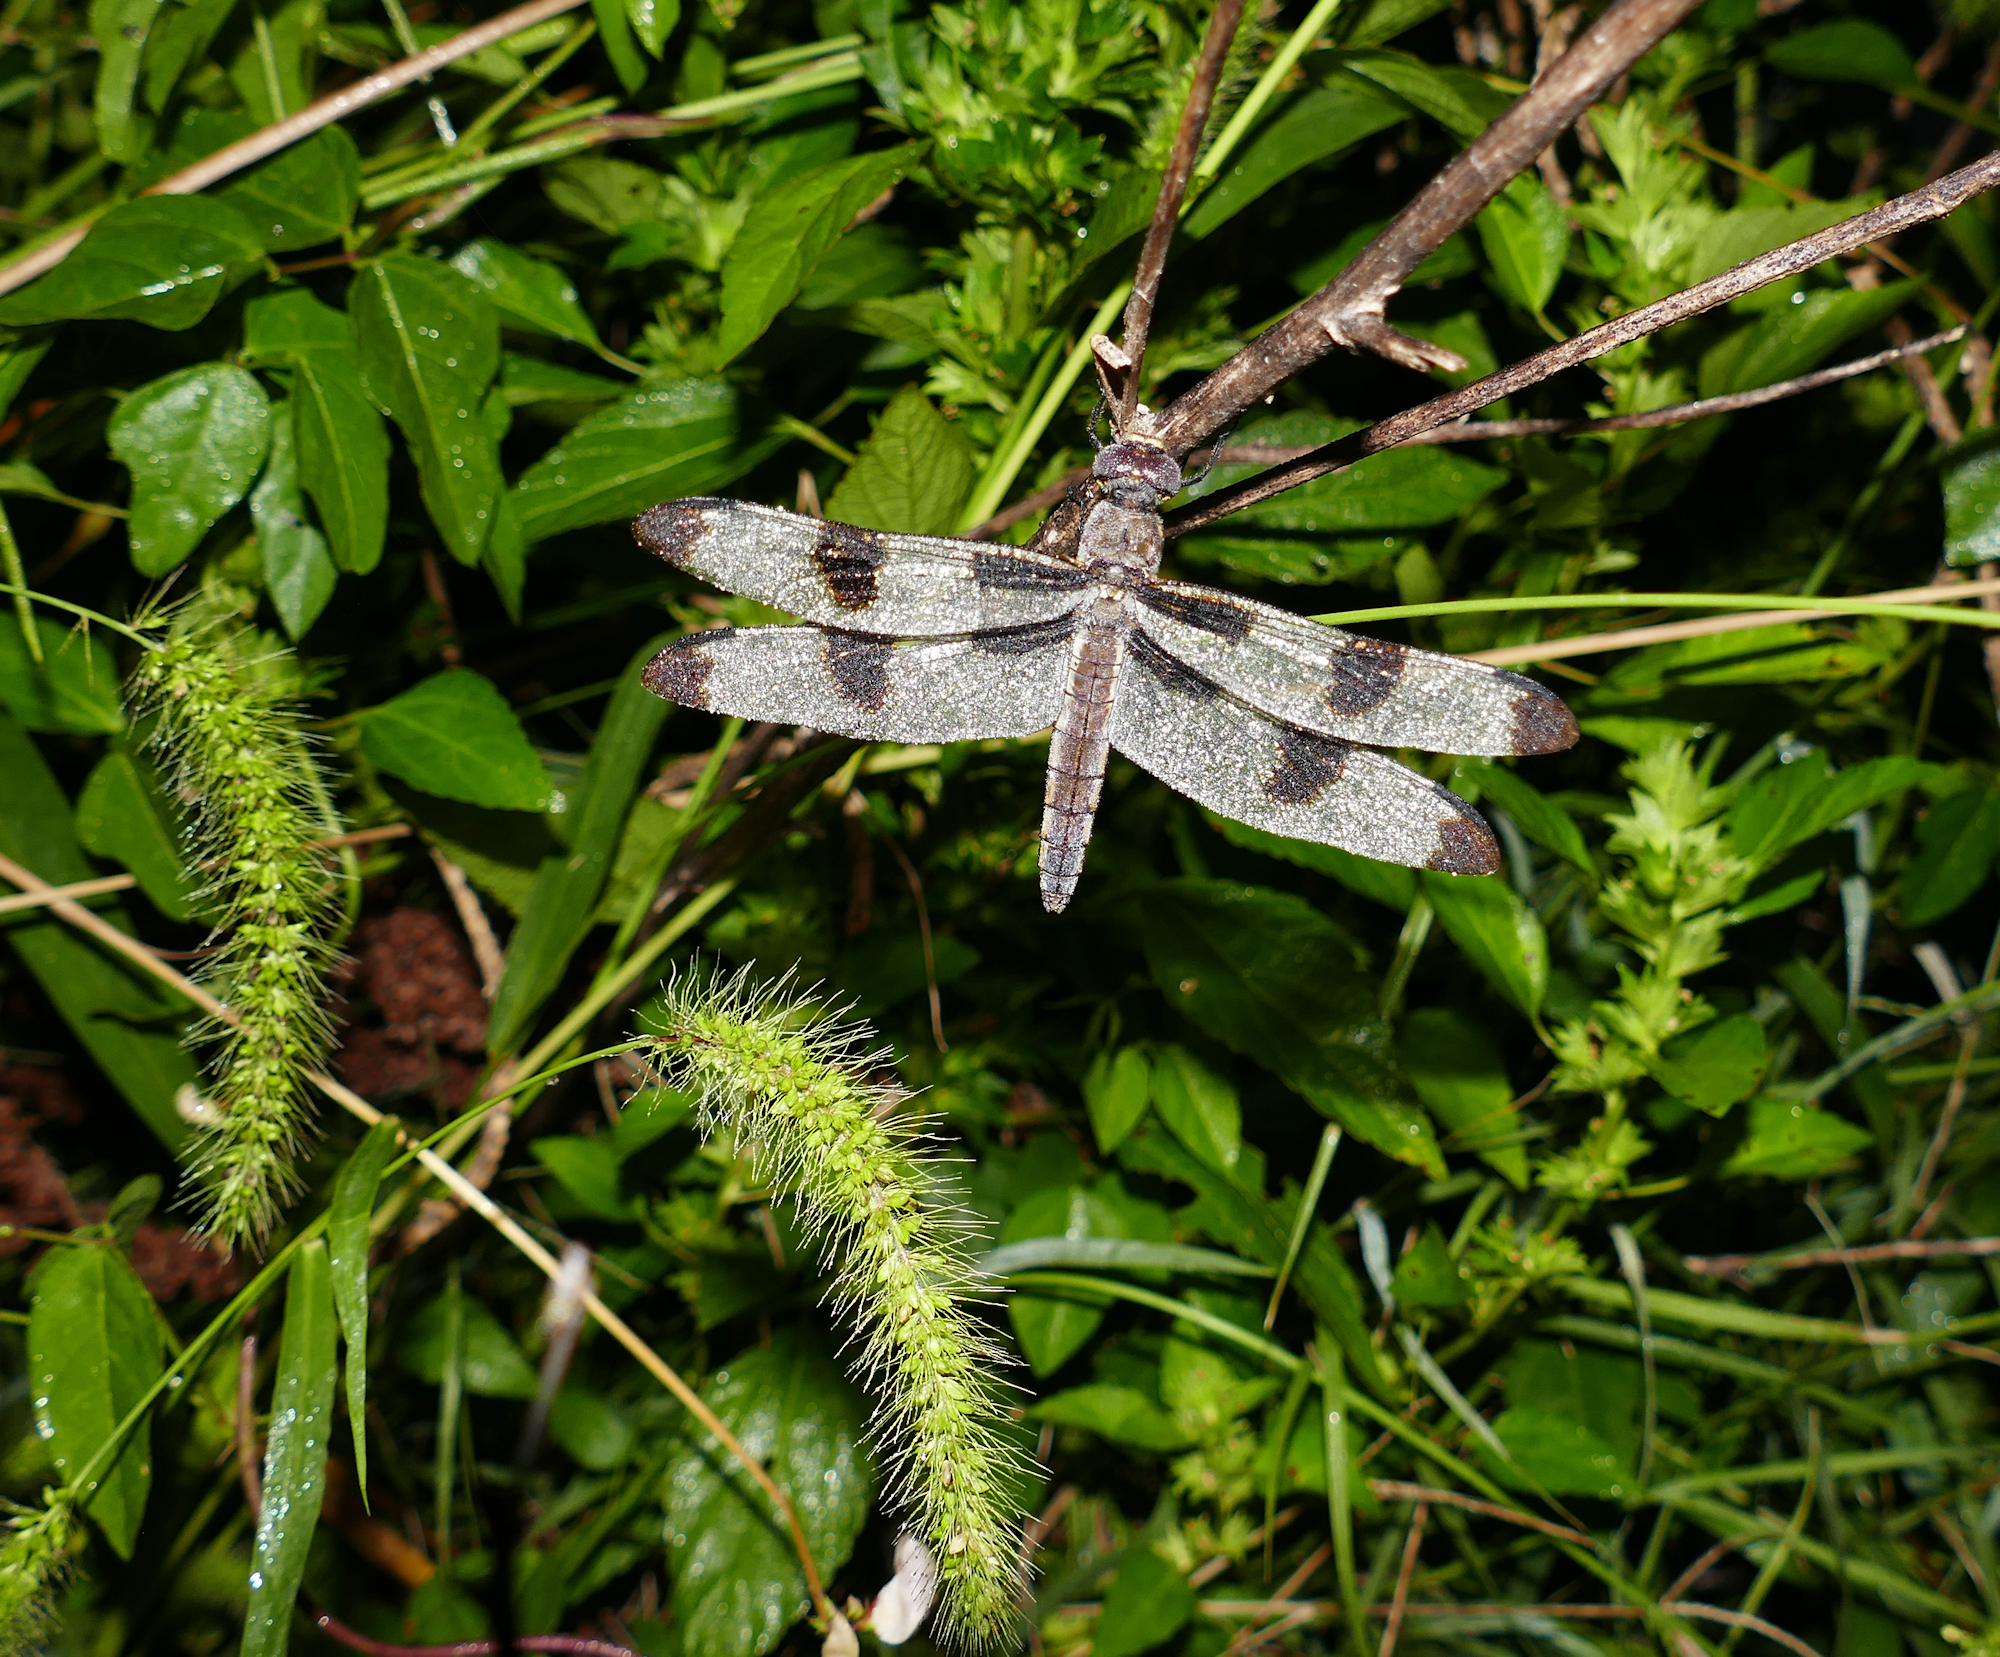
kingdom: Animalia
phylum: Arthropoda
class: Insecta
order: Odonata
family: Libellulidae
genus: Libellula
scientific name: Libellula pulchella
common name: Twelve-spotted skimmer
